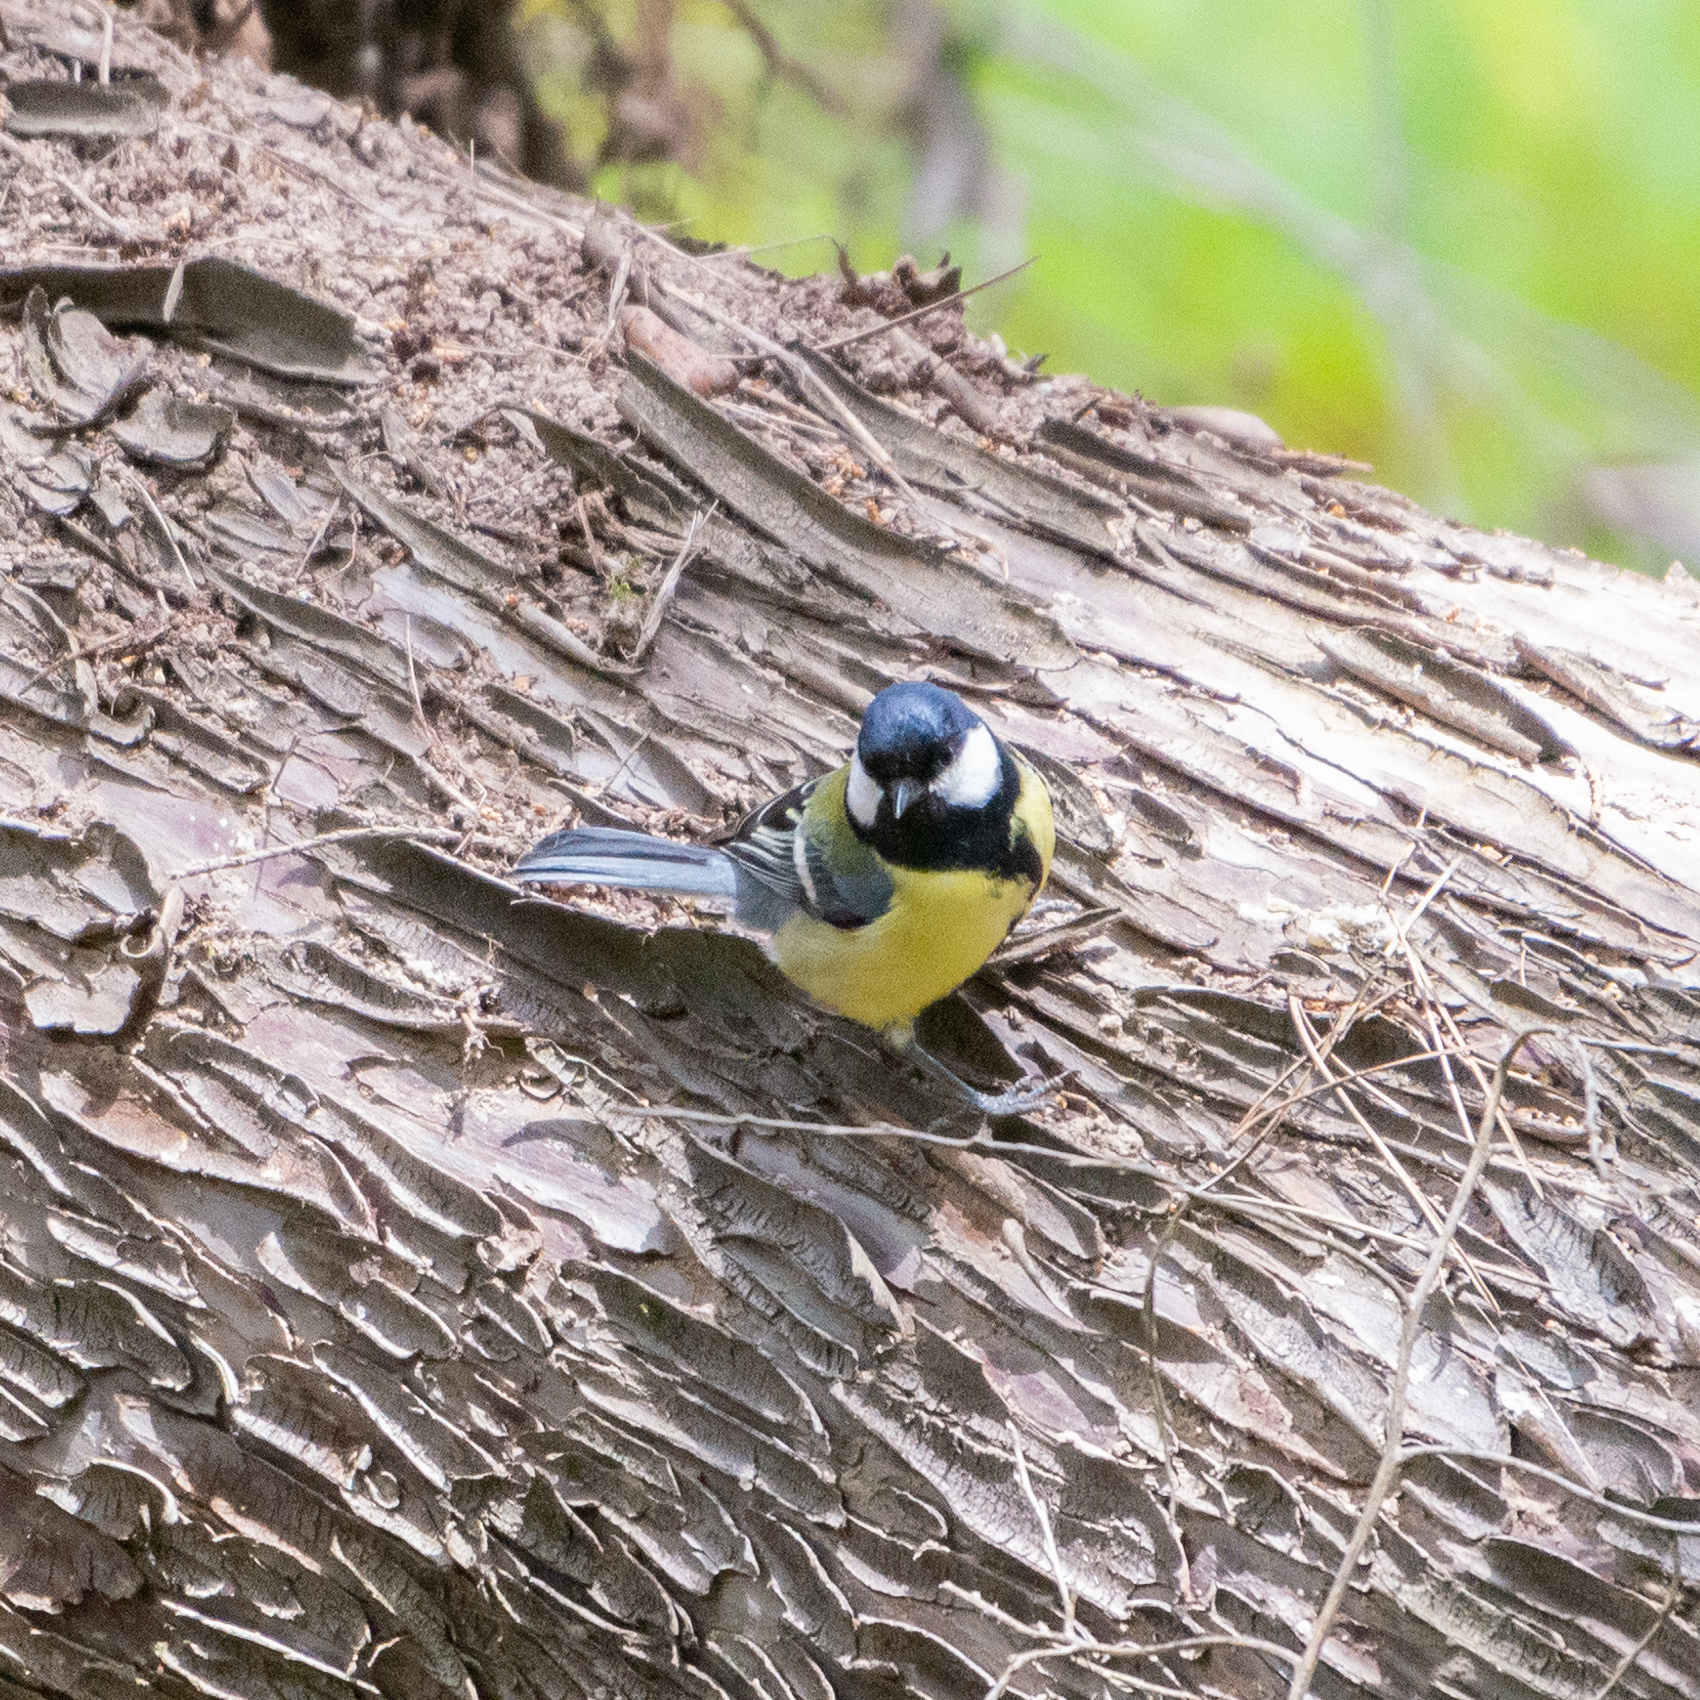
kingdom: Animalia
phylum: Chordata
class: Aves
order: Passeriformes
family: Paridae
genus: Parus
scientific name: Parus major
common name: Great tit
